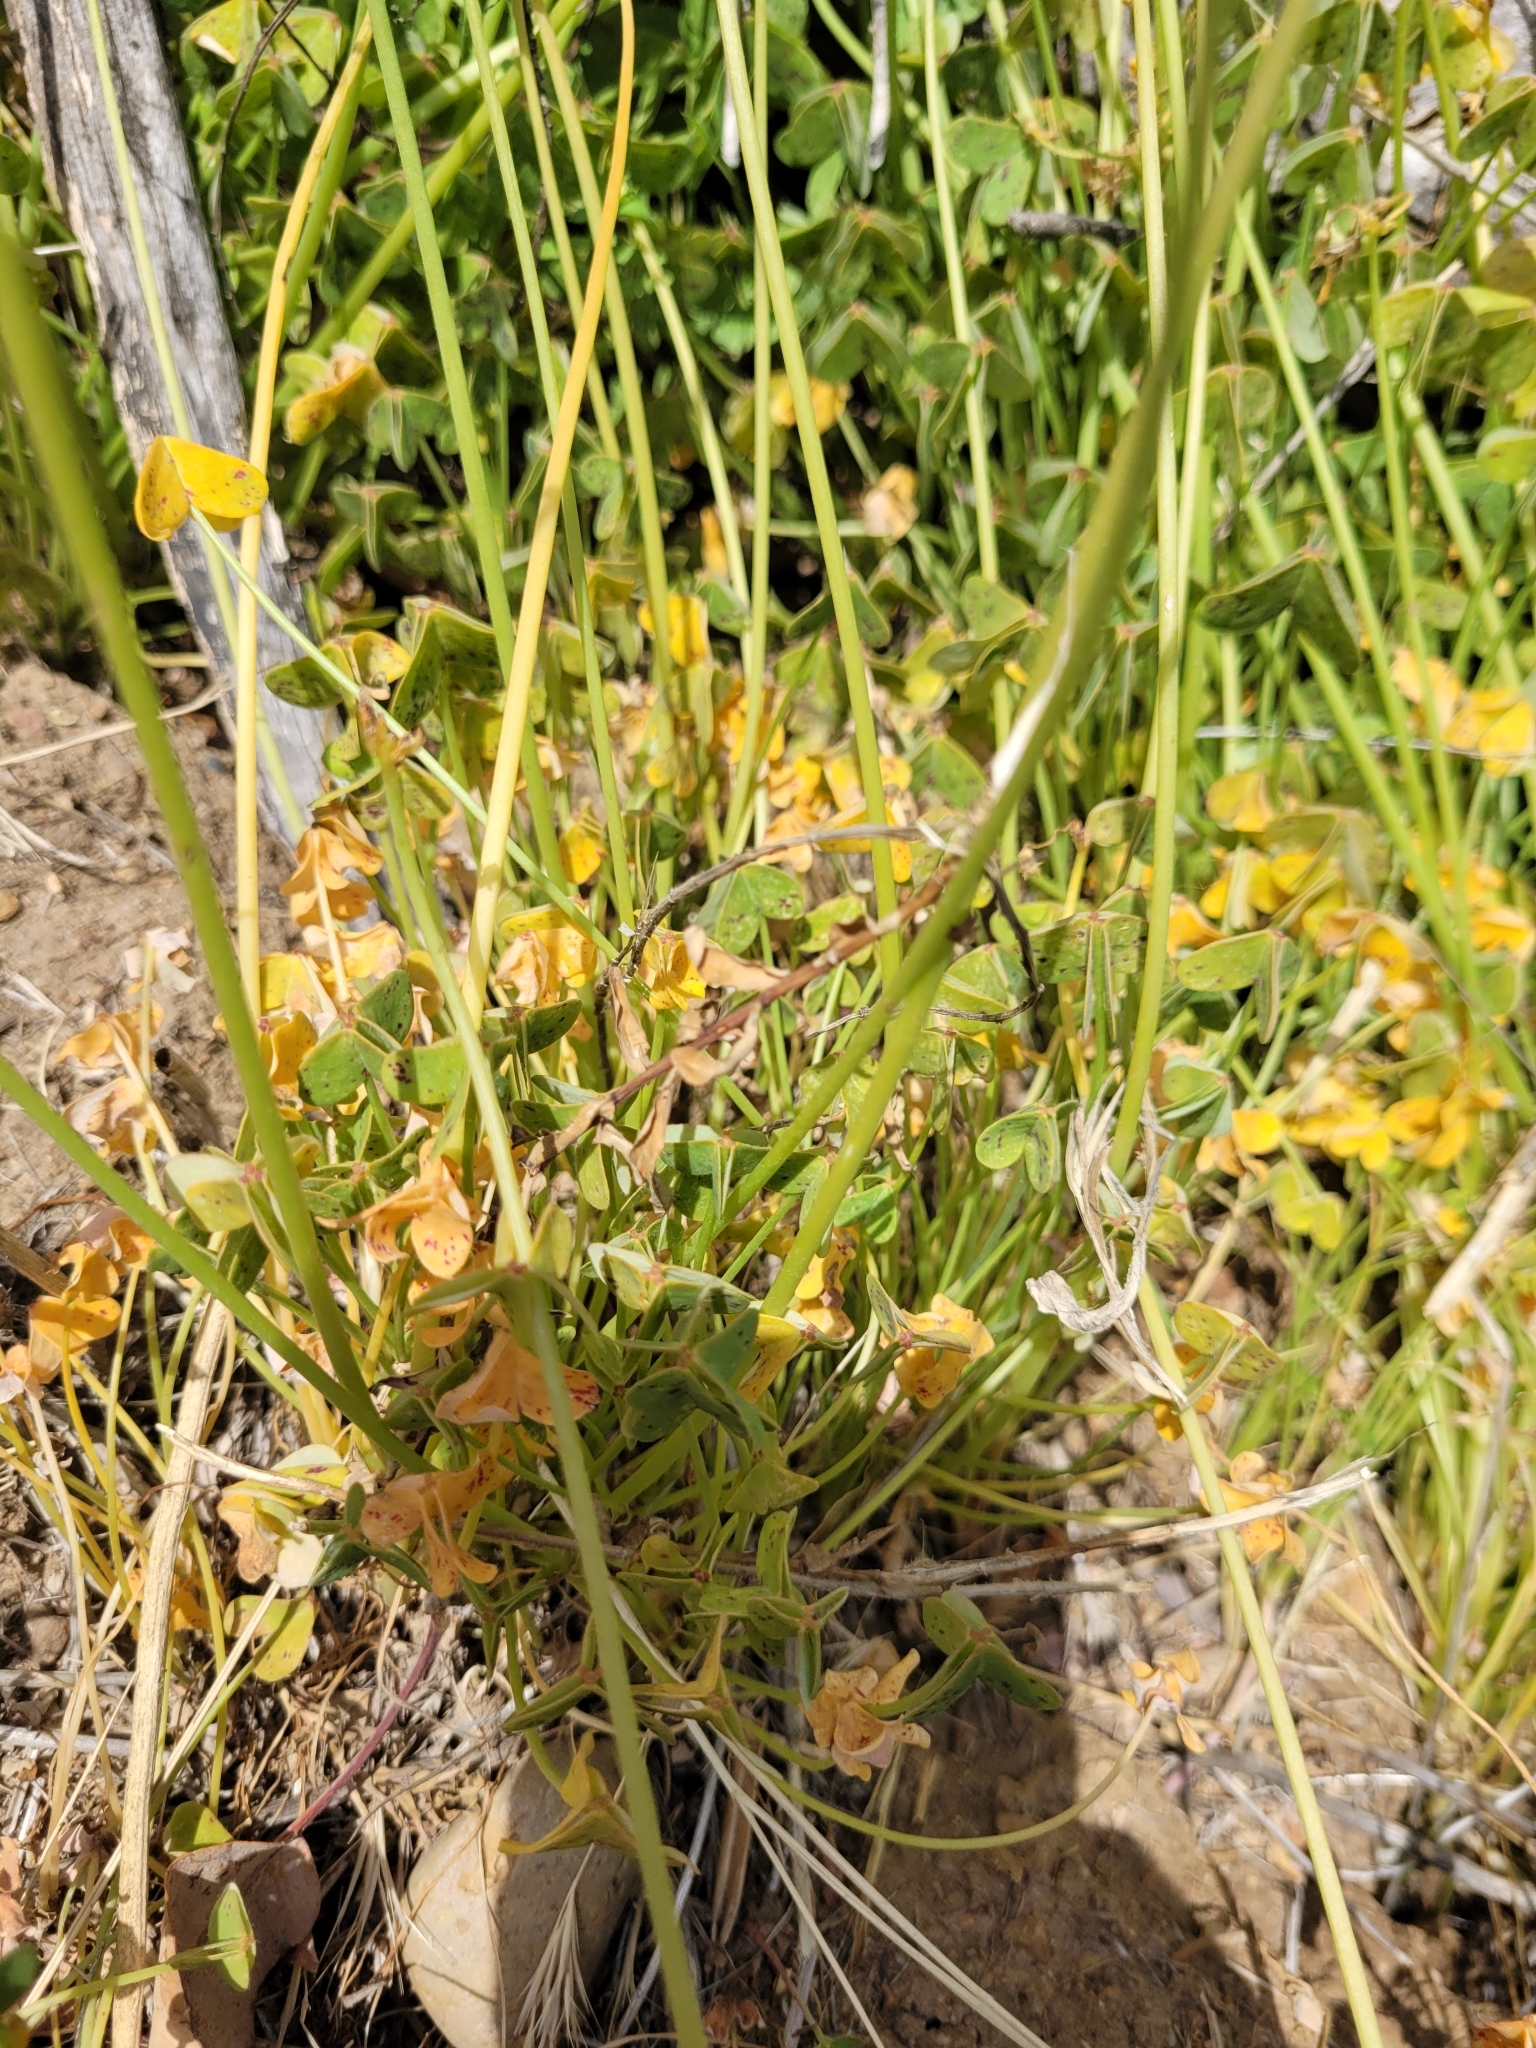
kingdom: Plantae
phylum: Tracheophyta
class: Magnoliopsida
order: Oxalidales
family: Oxalidaceae
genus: Oxalis
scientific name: Oxalis pes-caprae
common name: Bermuda-buttercup
